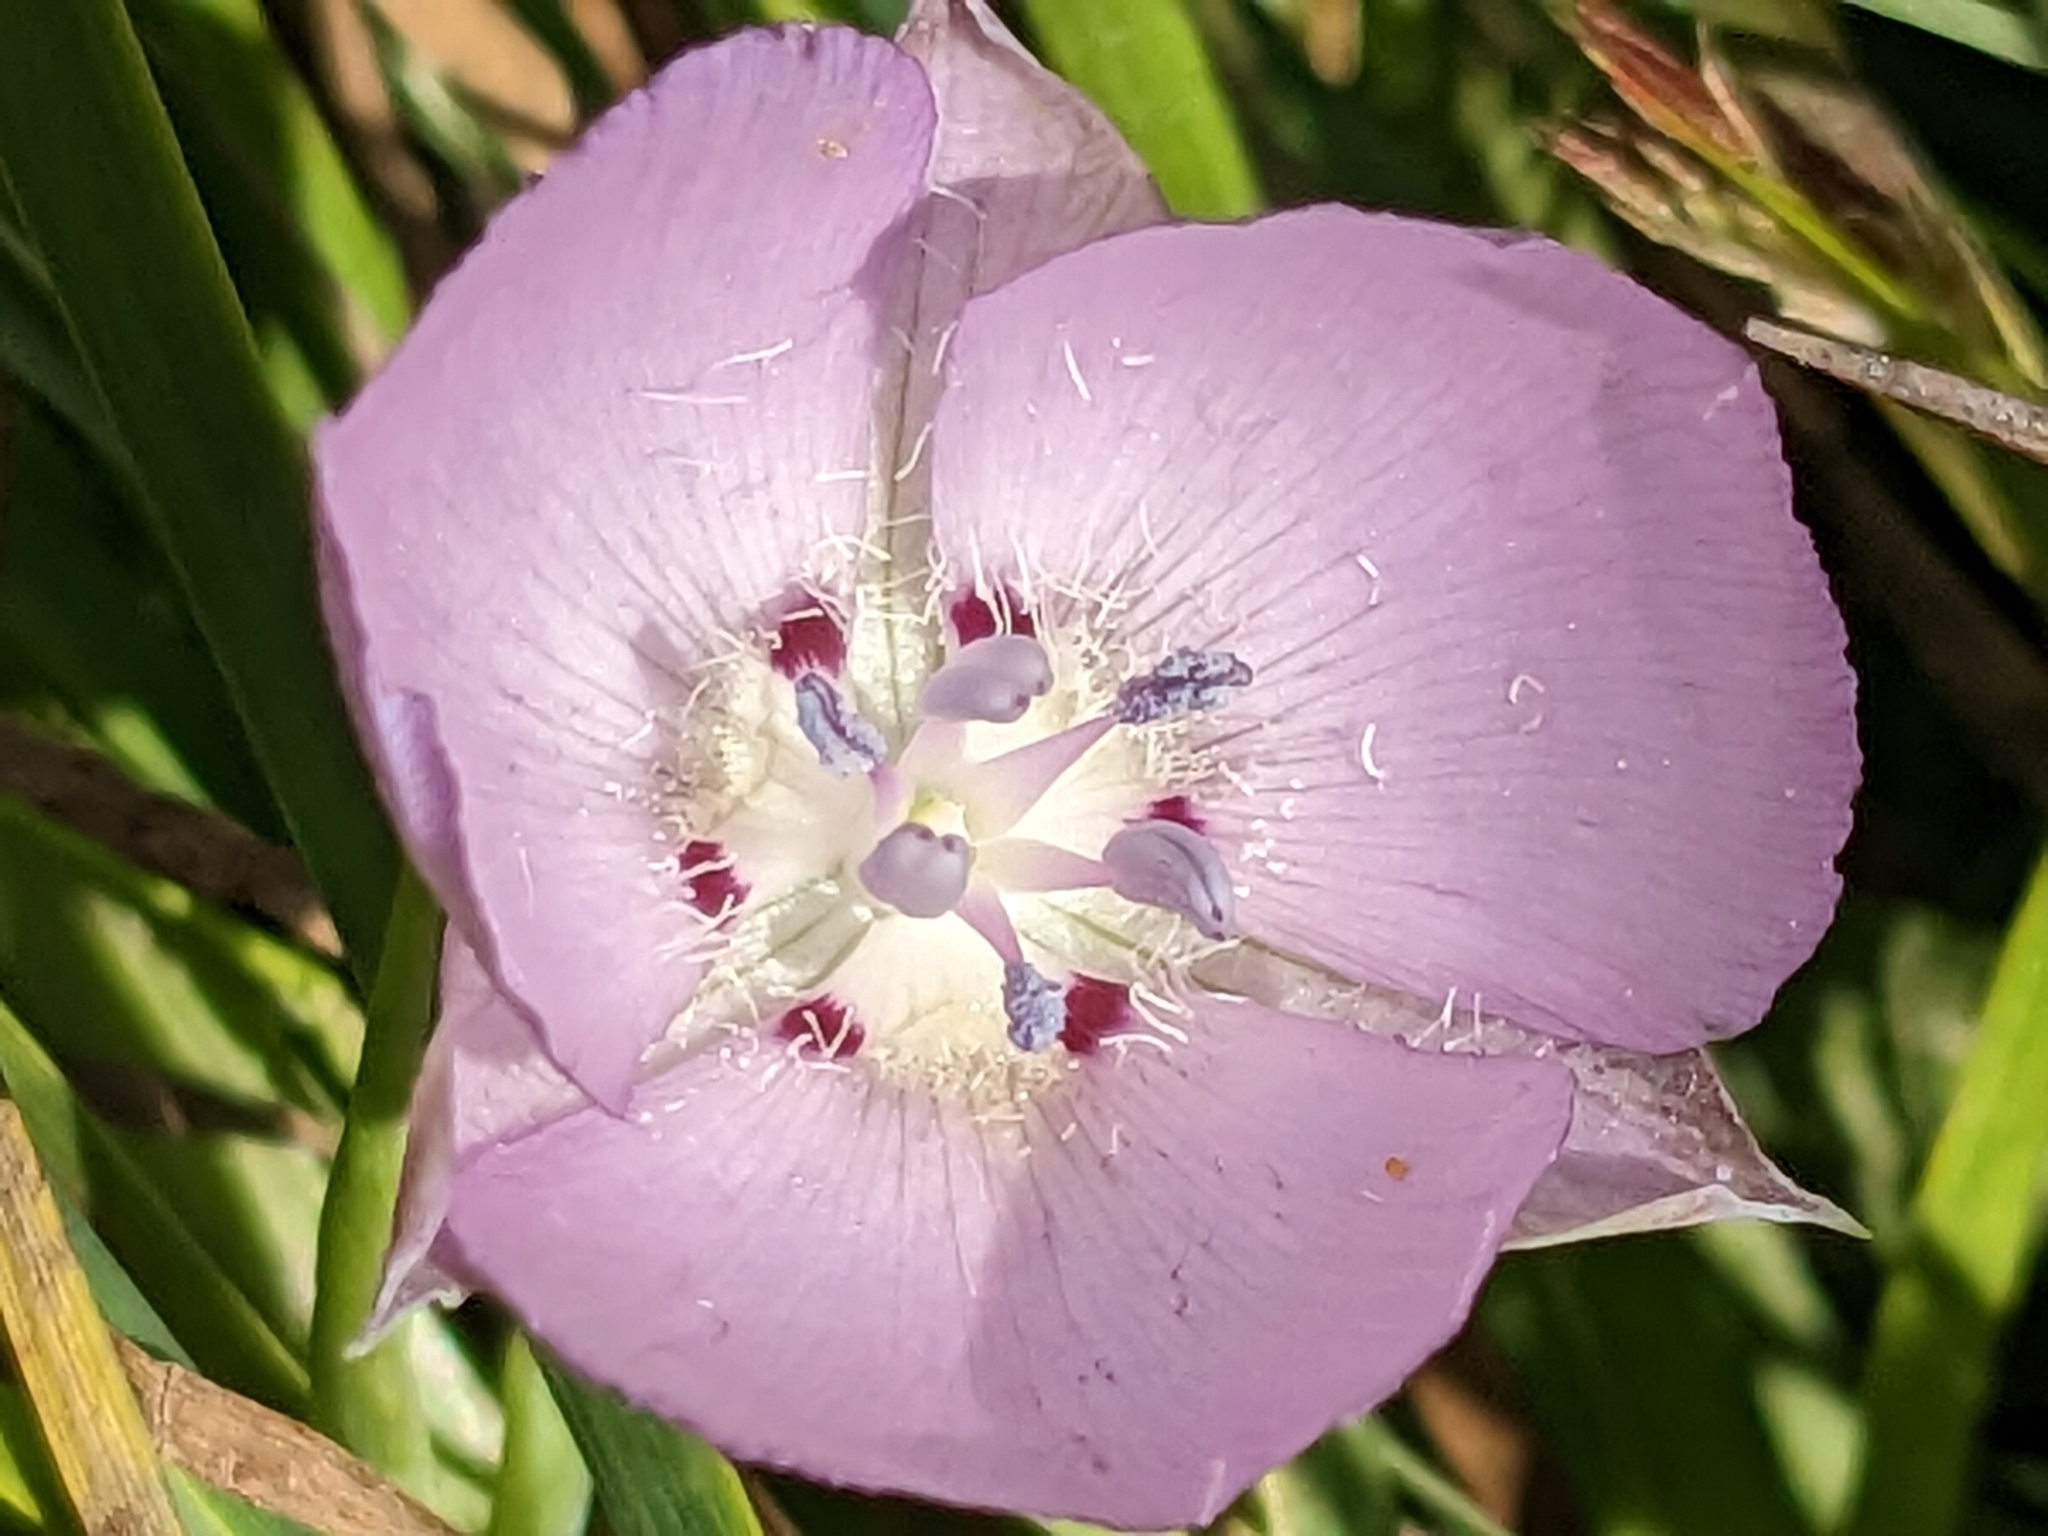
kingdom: Plantae
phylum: Tracheophyta
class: Liliopsida
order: Liliales
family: Liliaceae
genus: Calochortus
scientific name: Calochortus uniflorus
